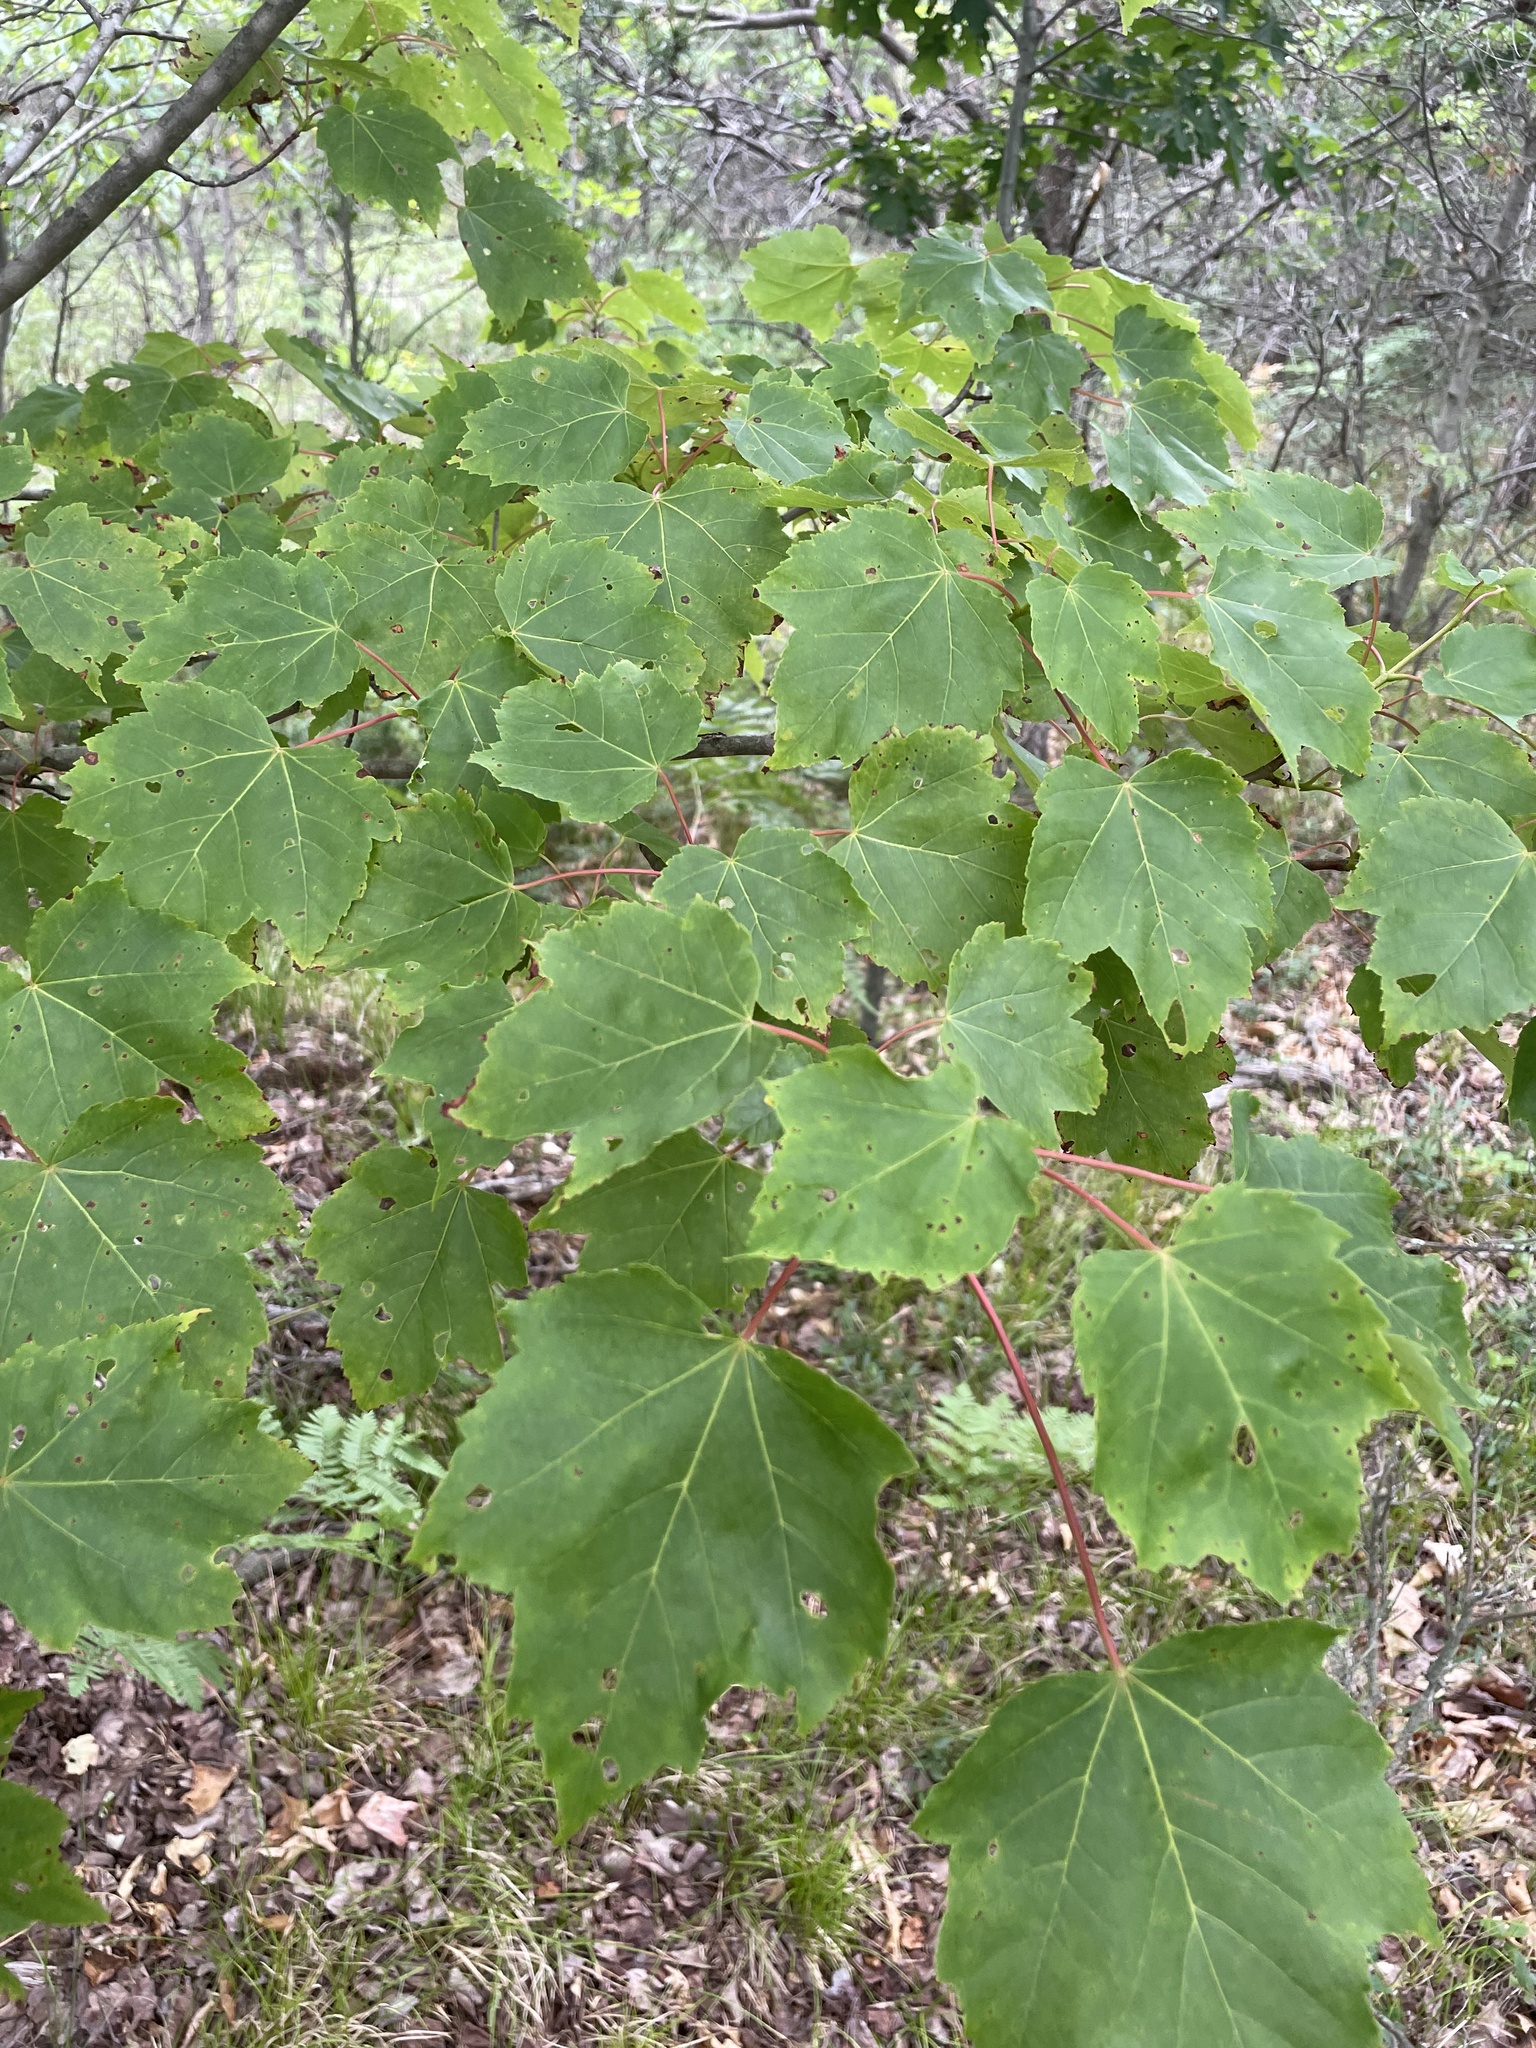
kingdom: Plantae
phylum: Tracheophyta
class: Magnoliopsida
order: Sapindales
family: Sapindaceae
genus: Acer
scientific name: Acer rubrum
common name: Red maple
